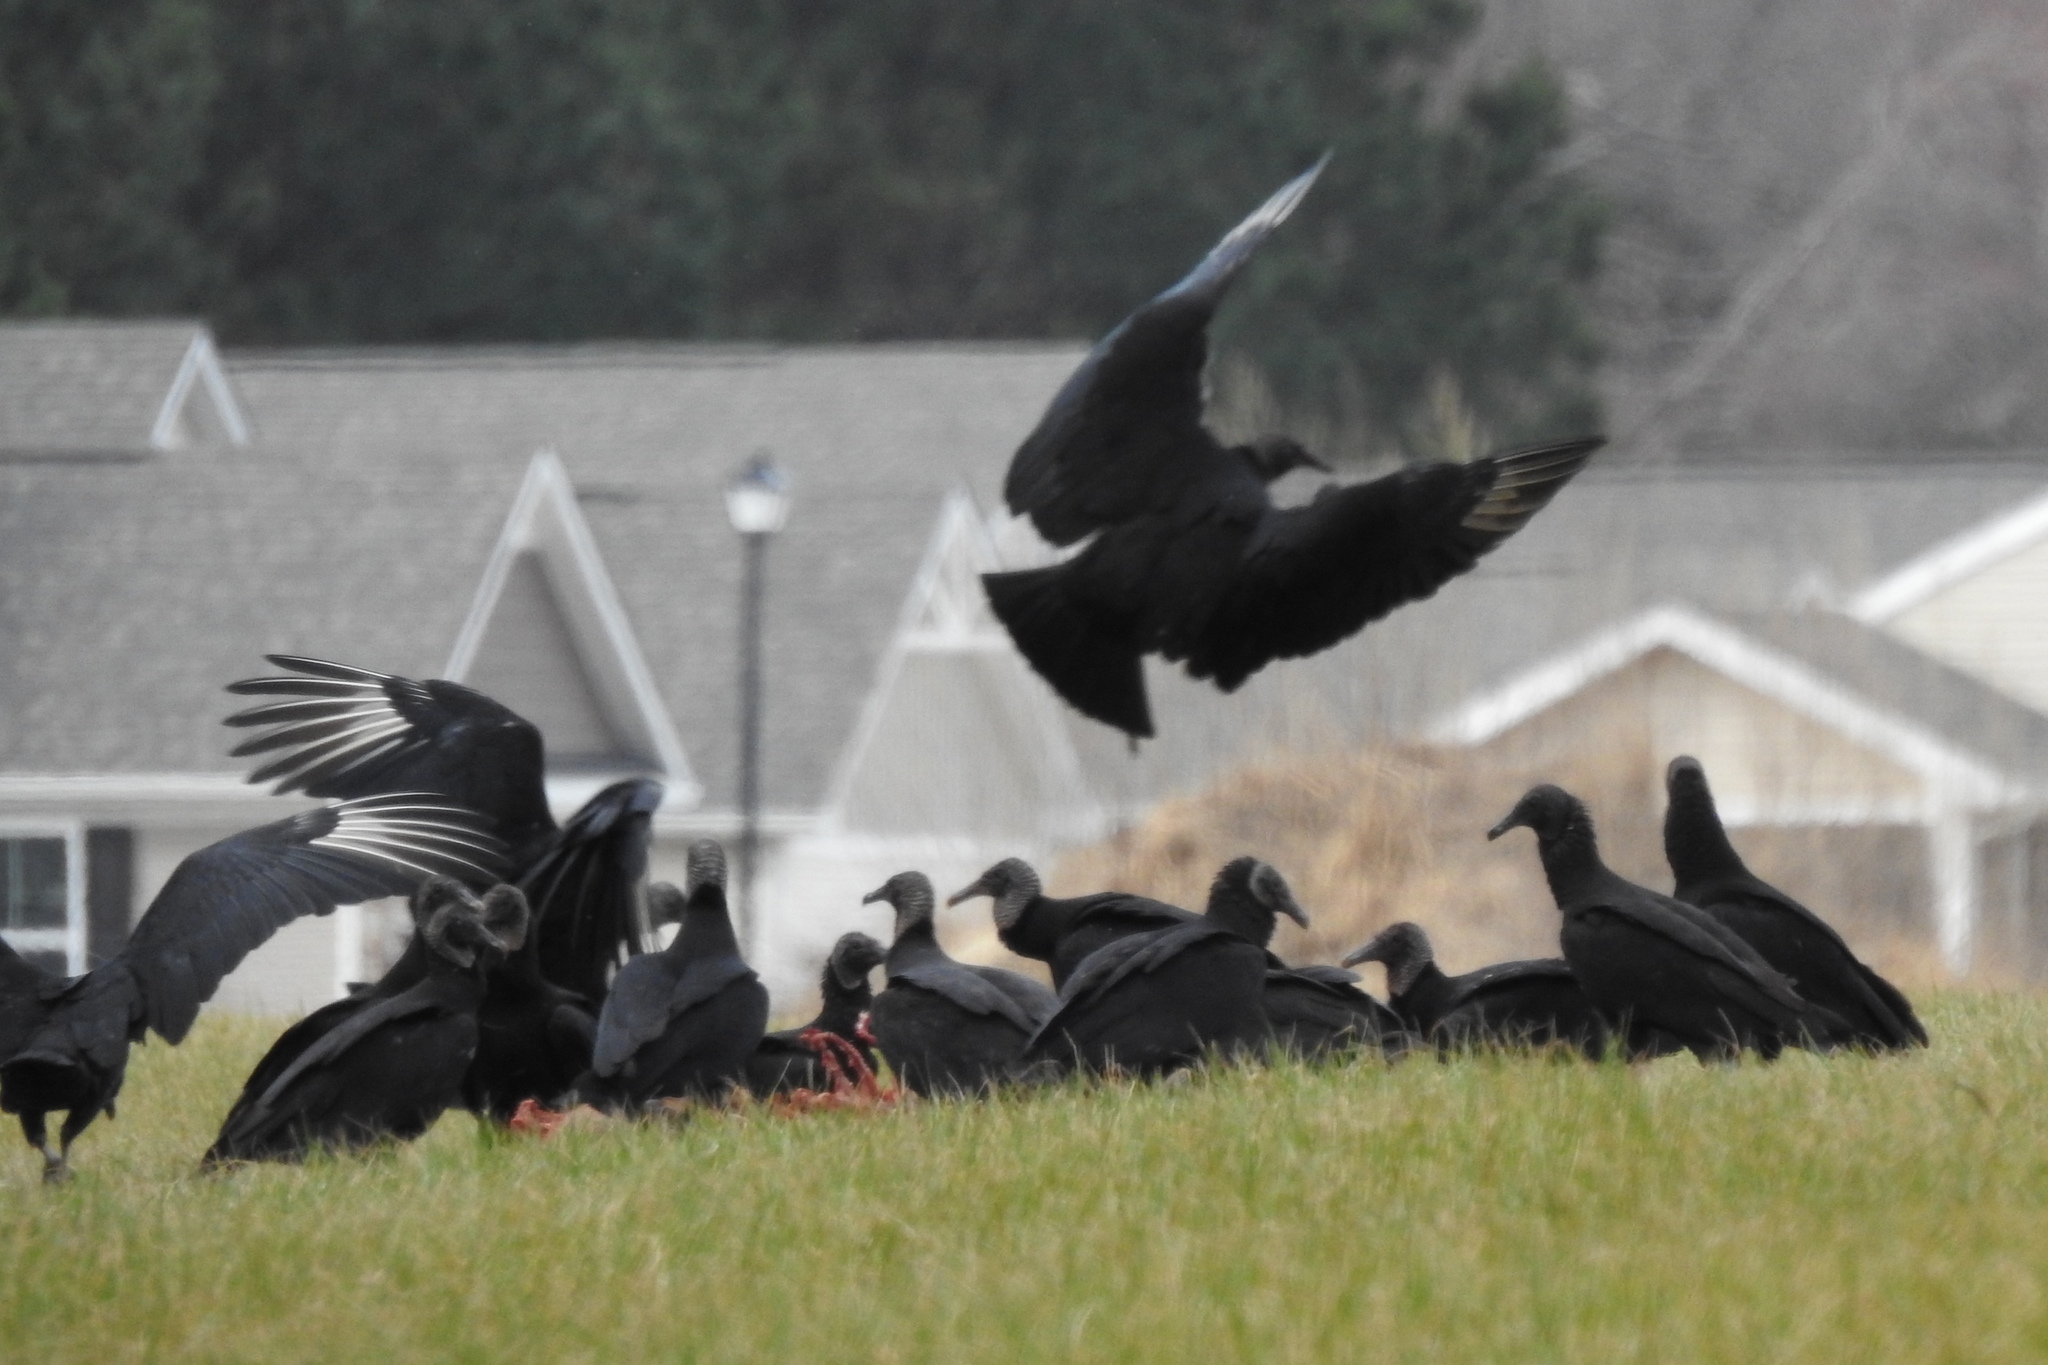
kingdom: Animalia
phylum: Chordata
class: Aves
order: Accipitriformes
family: Cathartidae
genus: Coragyps
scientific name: Coragyps atratus
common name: Black vulture
